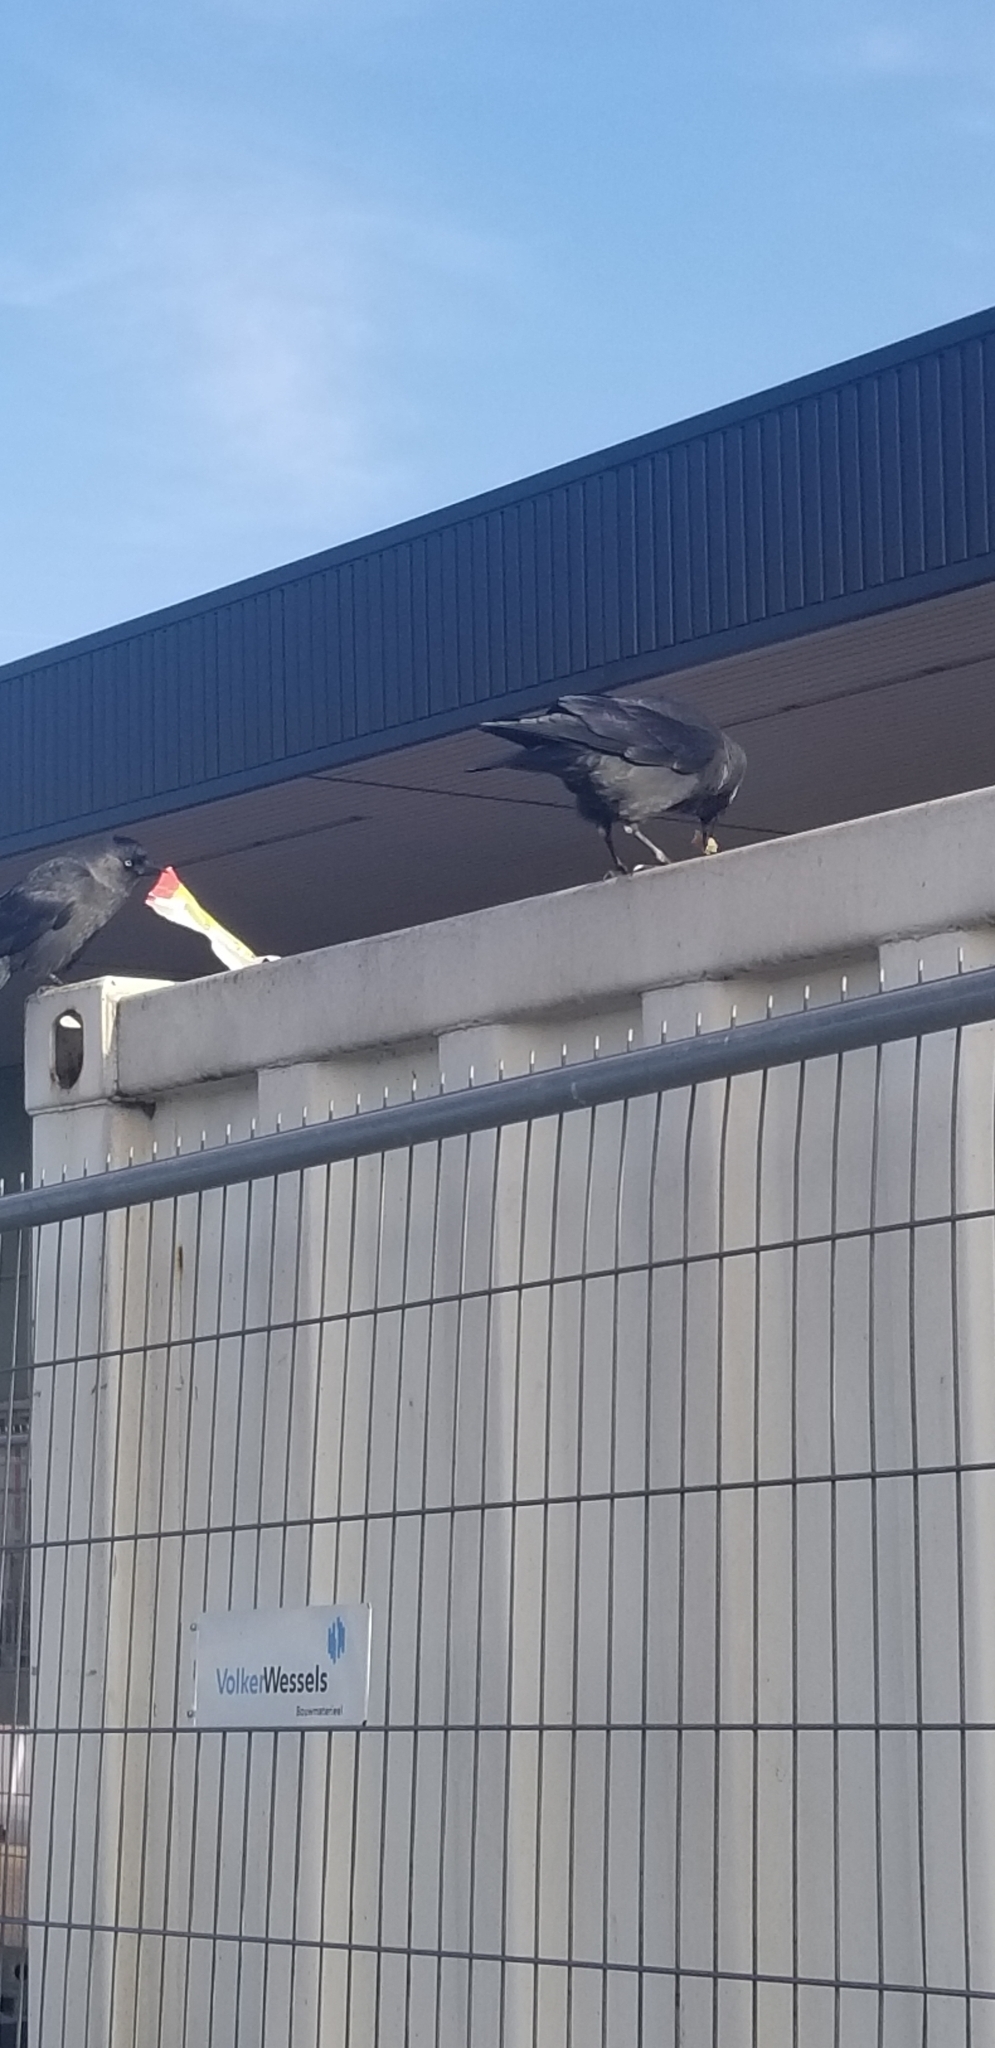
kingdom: Animalia
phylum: Chordata
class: Aves
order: Passeriformes
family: Corvidae
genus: Coloeus
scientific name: Coloeus monedula
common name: Western jackdaw
